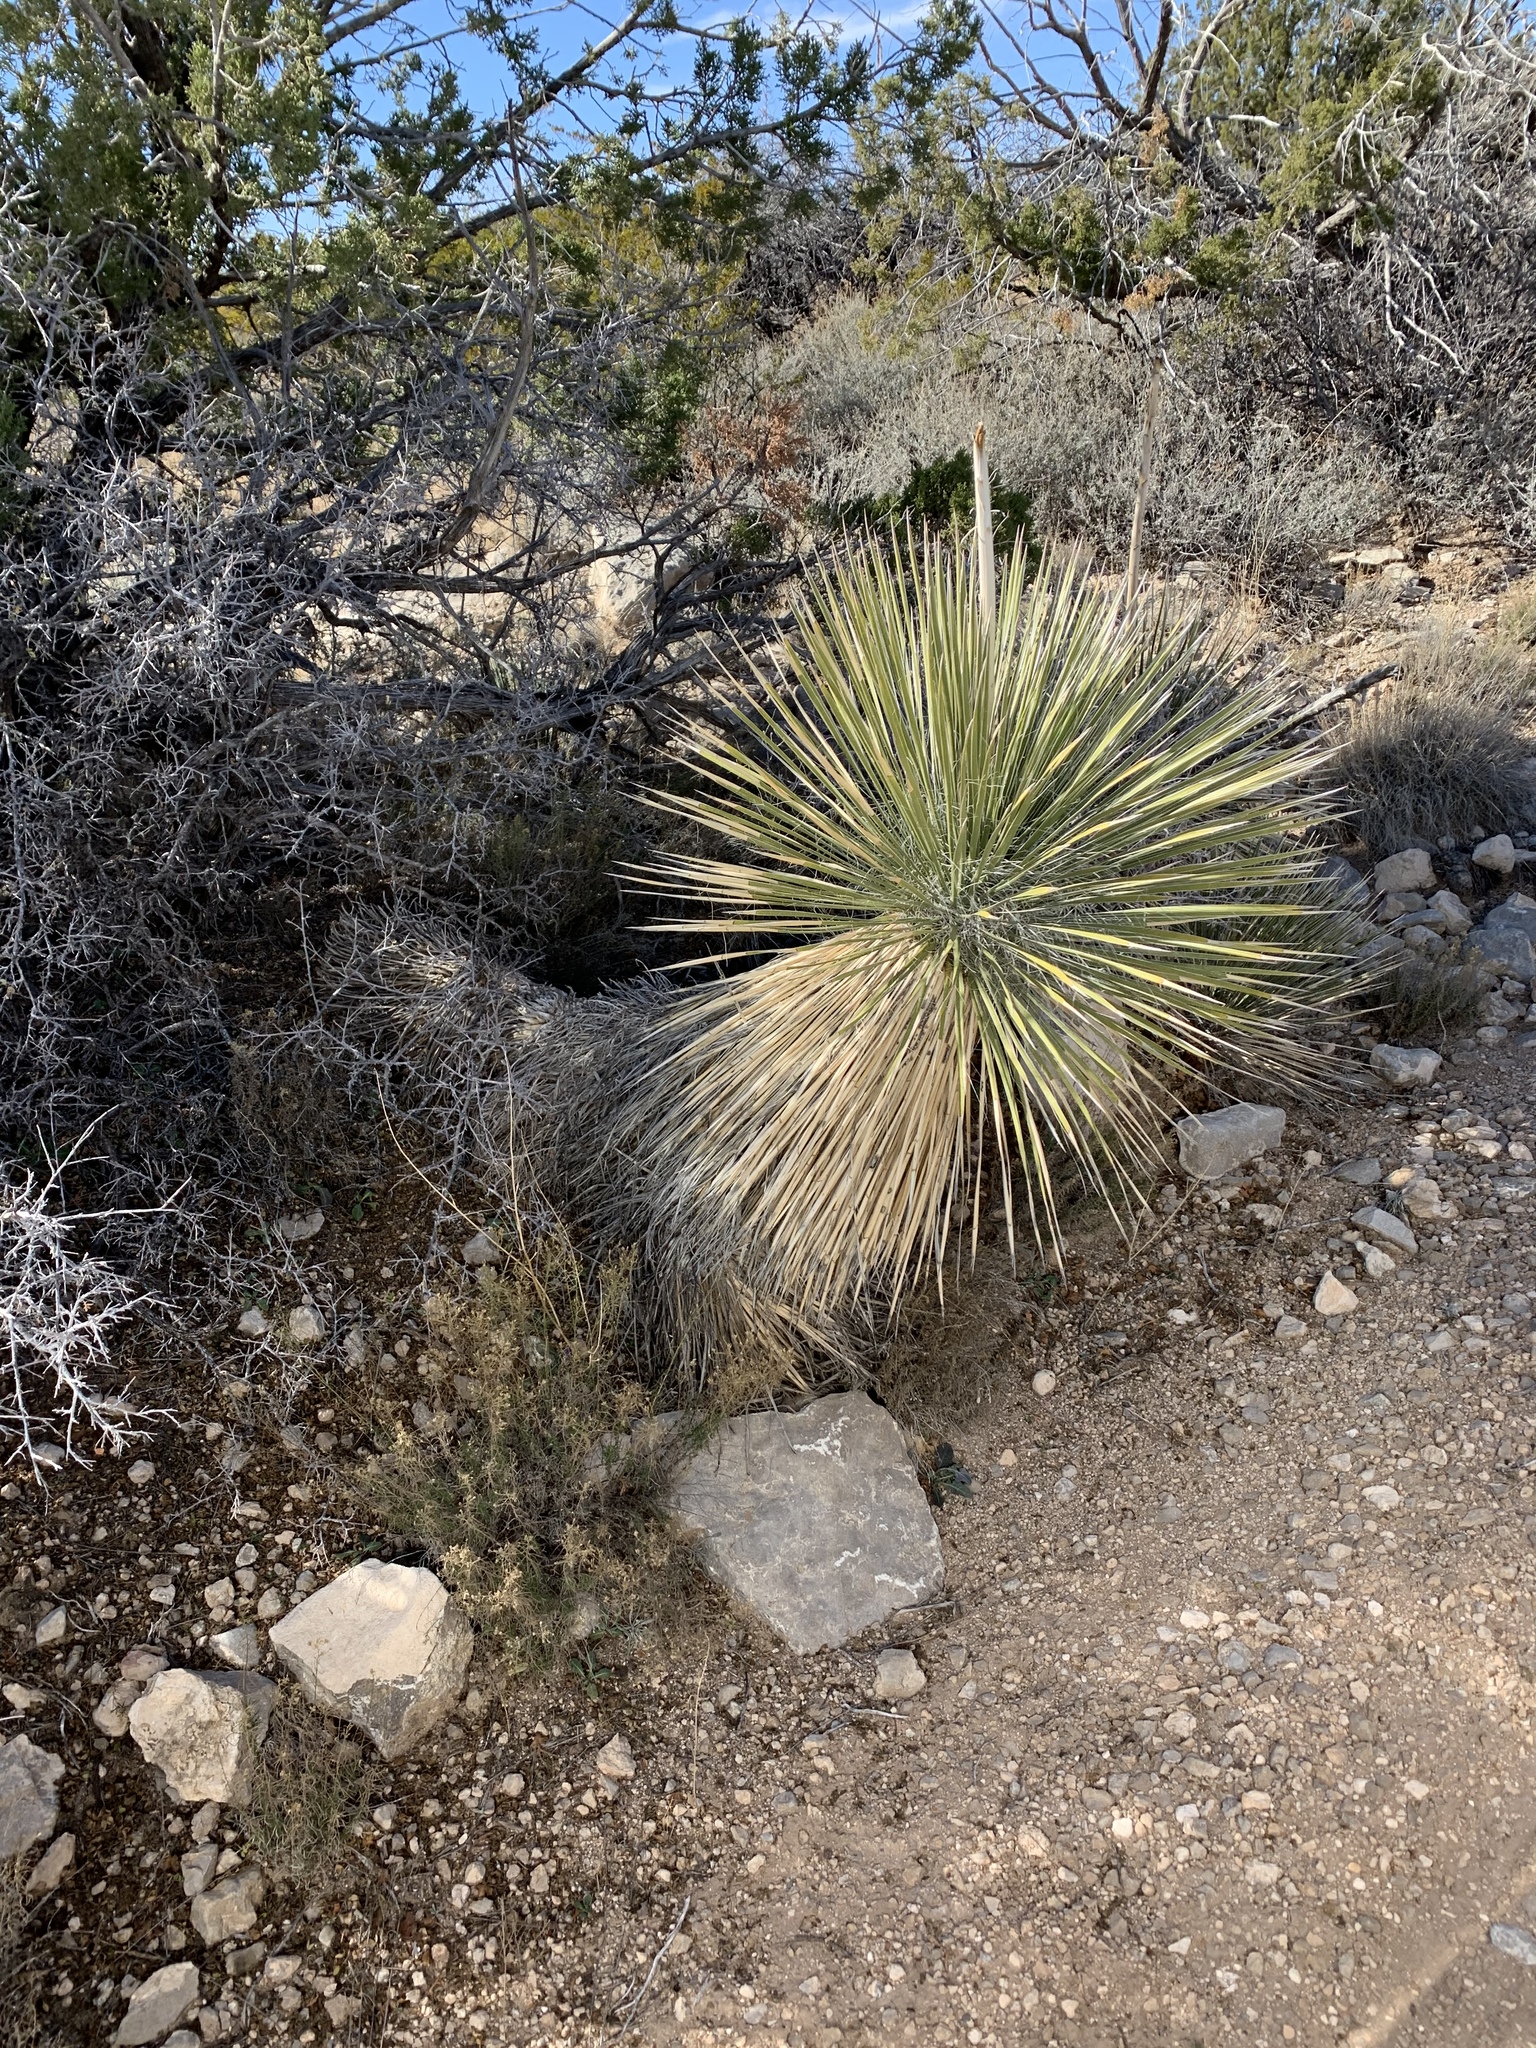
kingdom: Plantae
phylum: Tracheophyta
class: Liliopsida
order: Asparagales
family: Asparagaceae
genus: Yucca
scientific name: Yucca elata
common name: Palmella
